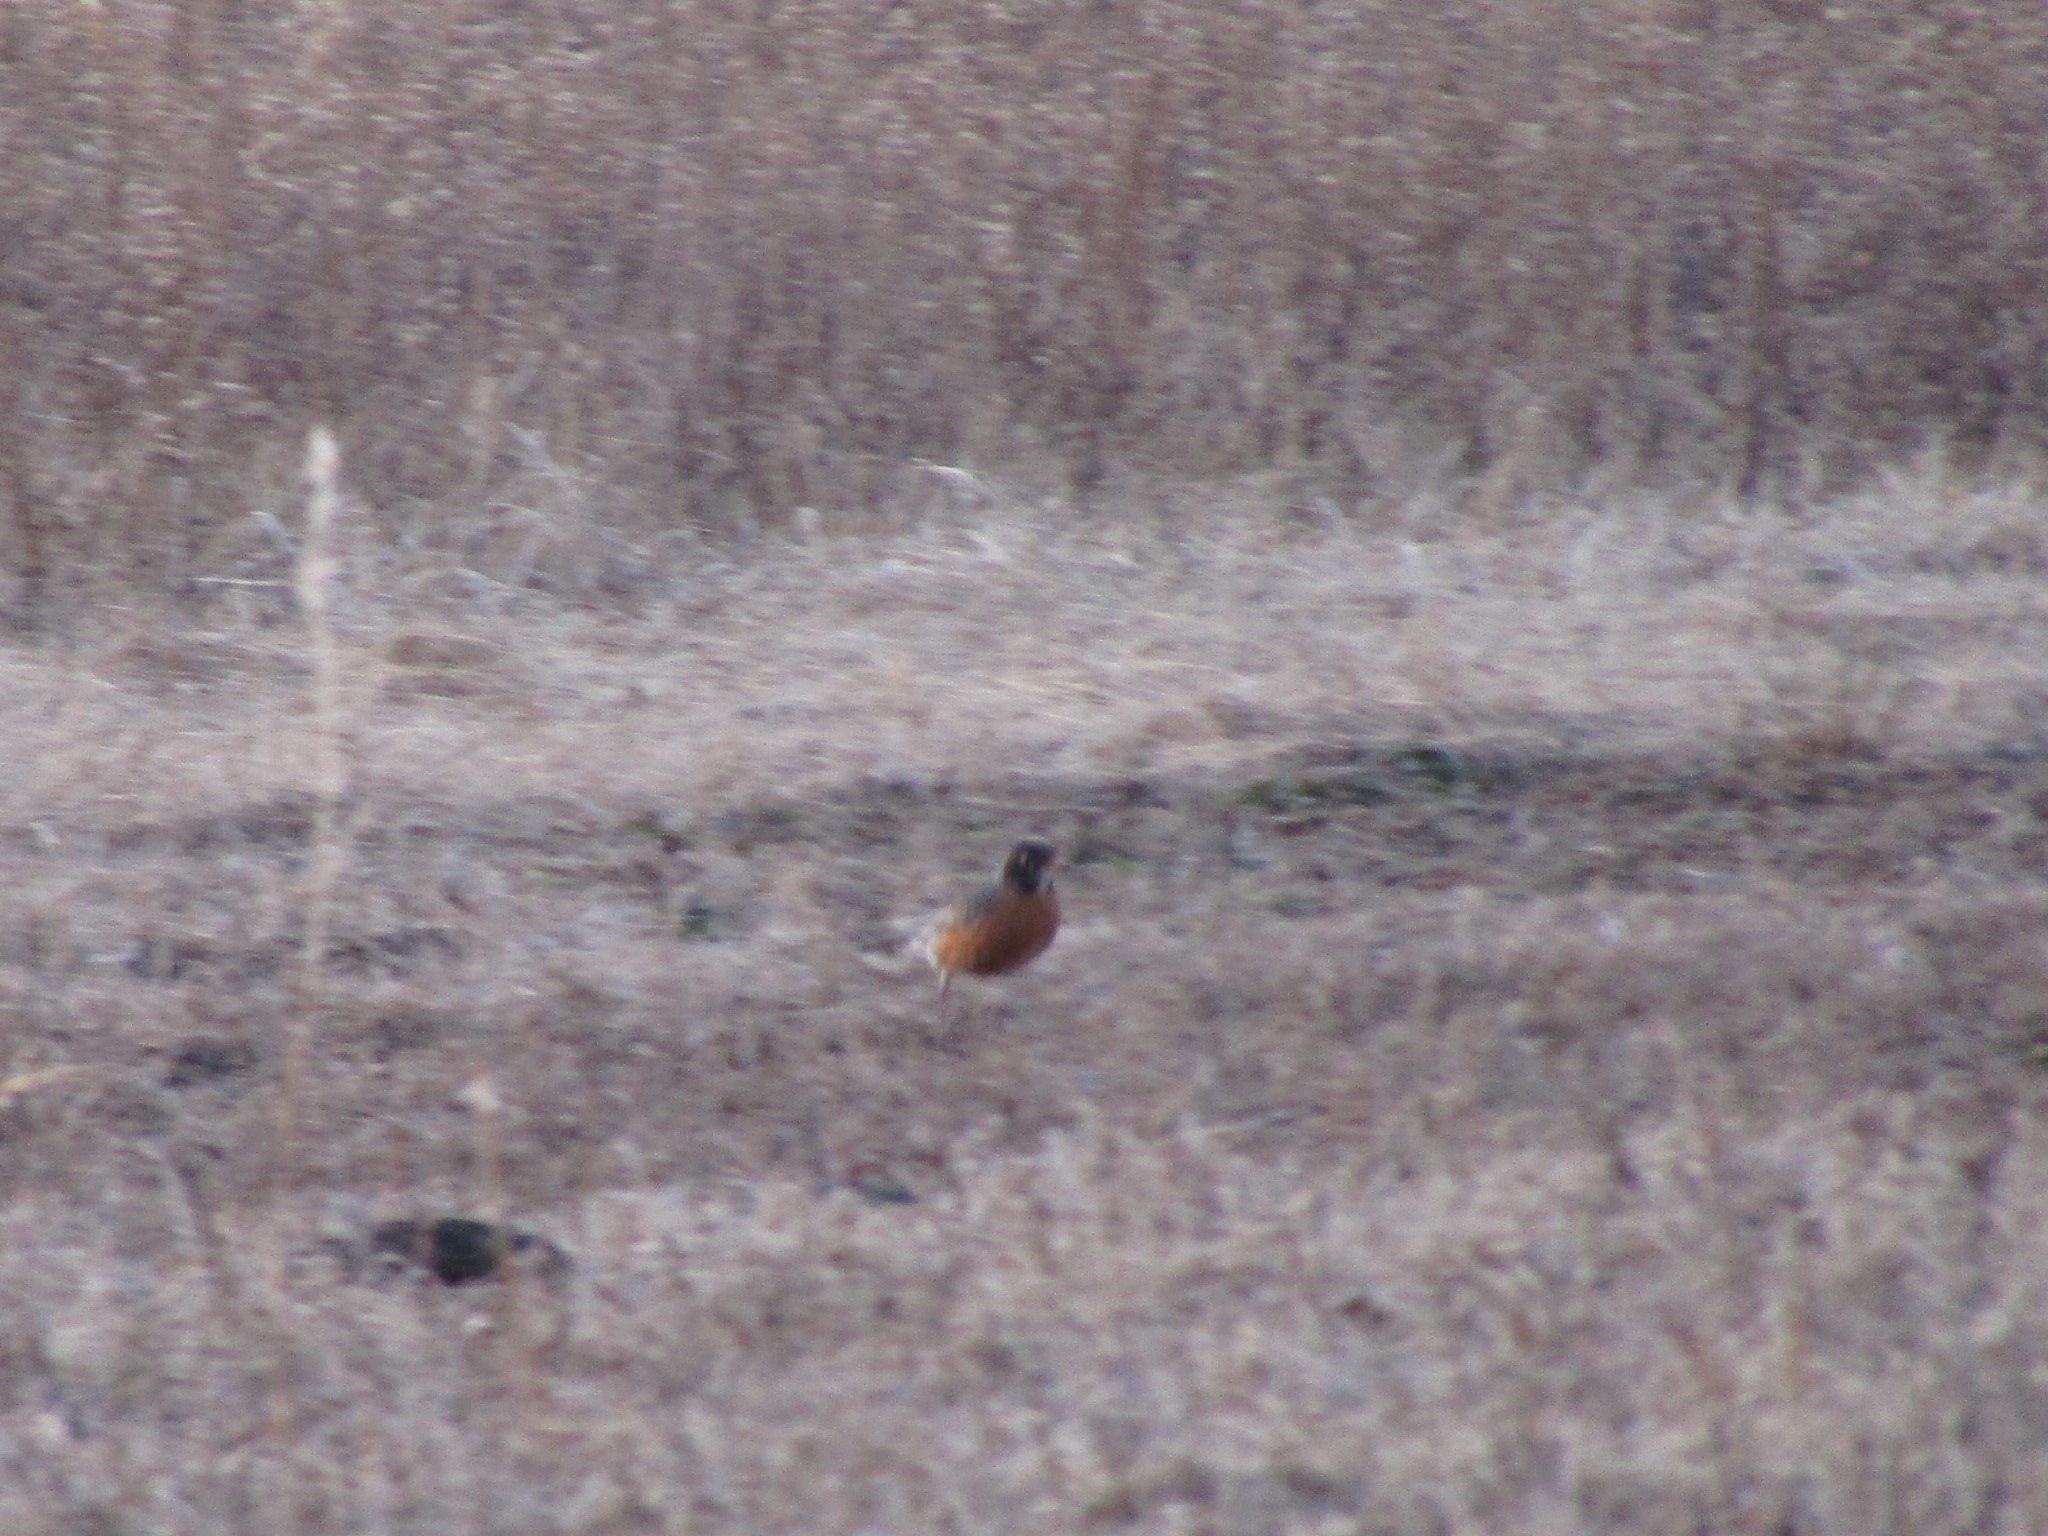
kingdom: Animalia
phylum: Chordata
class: Aves
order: Passeriformes
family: Turdidae
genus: Turdus
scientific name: Turdus migratorius
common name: American robin
